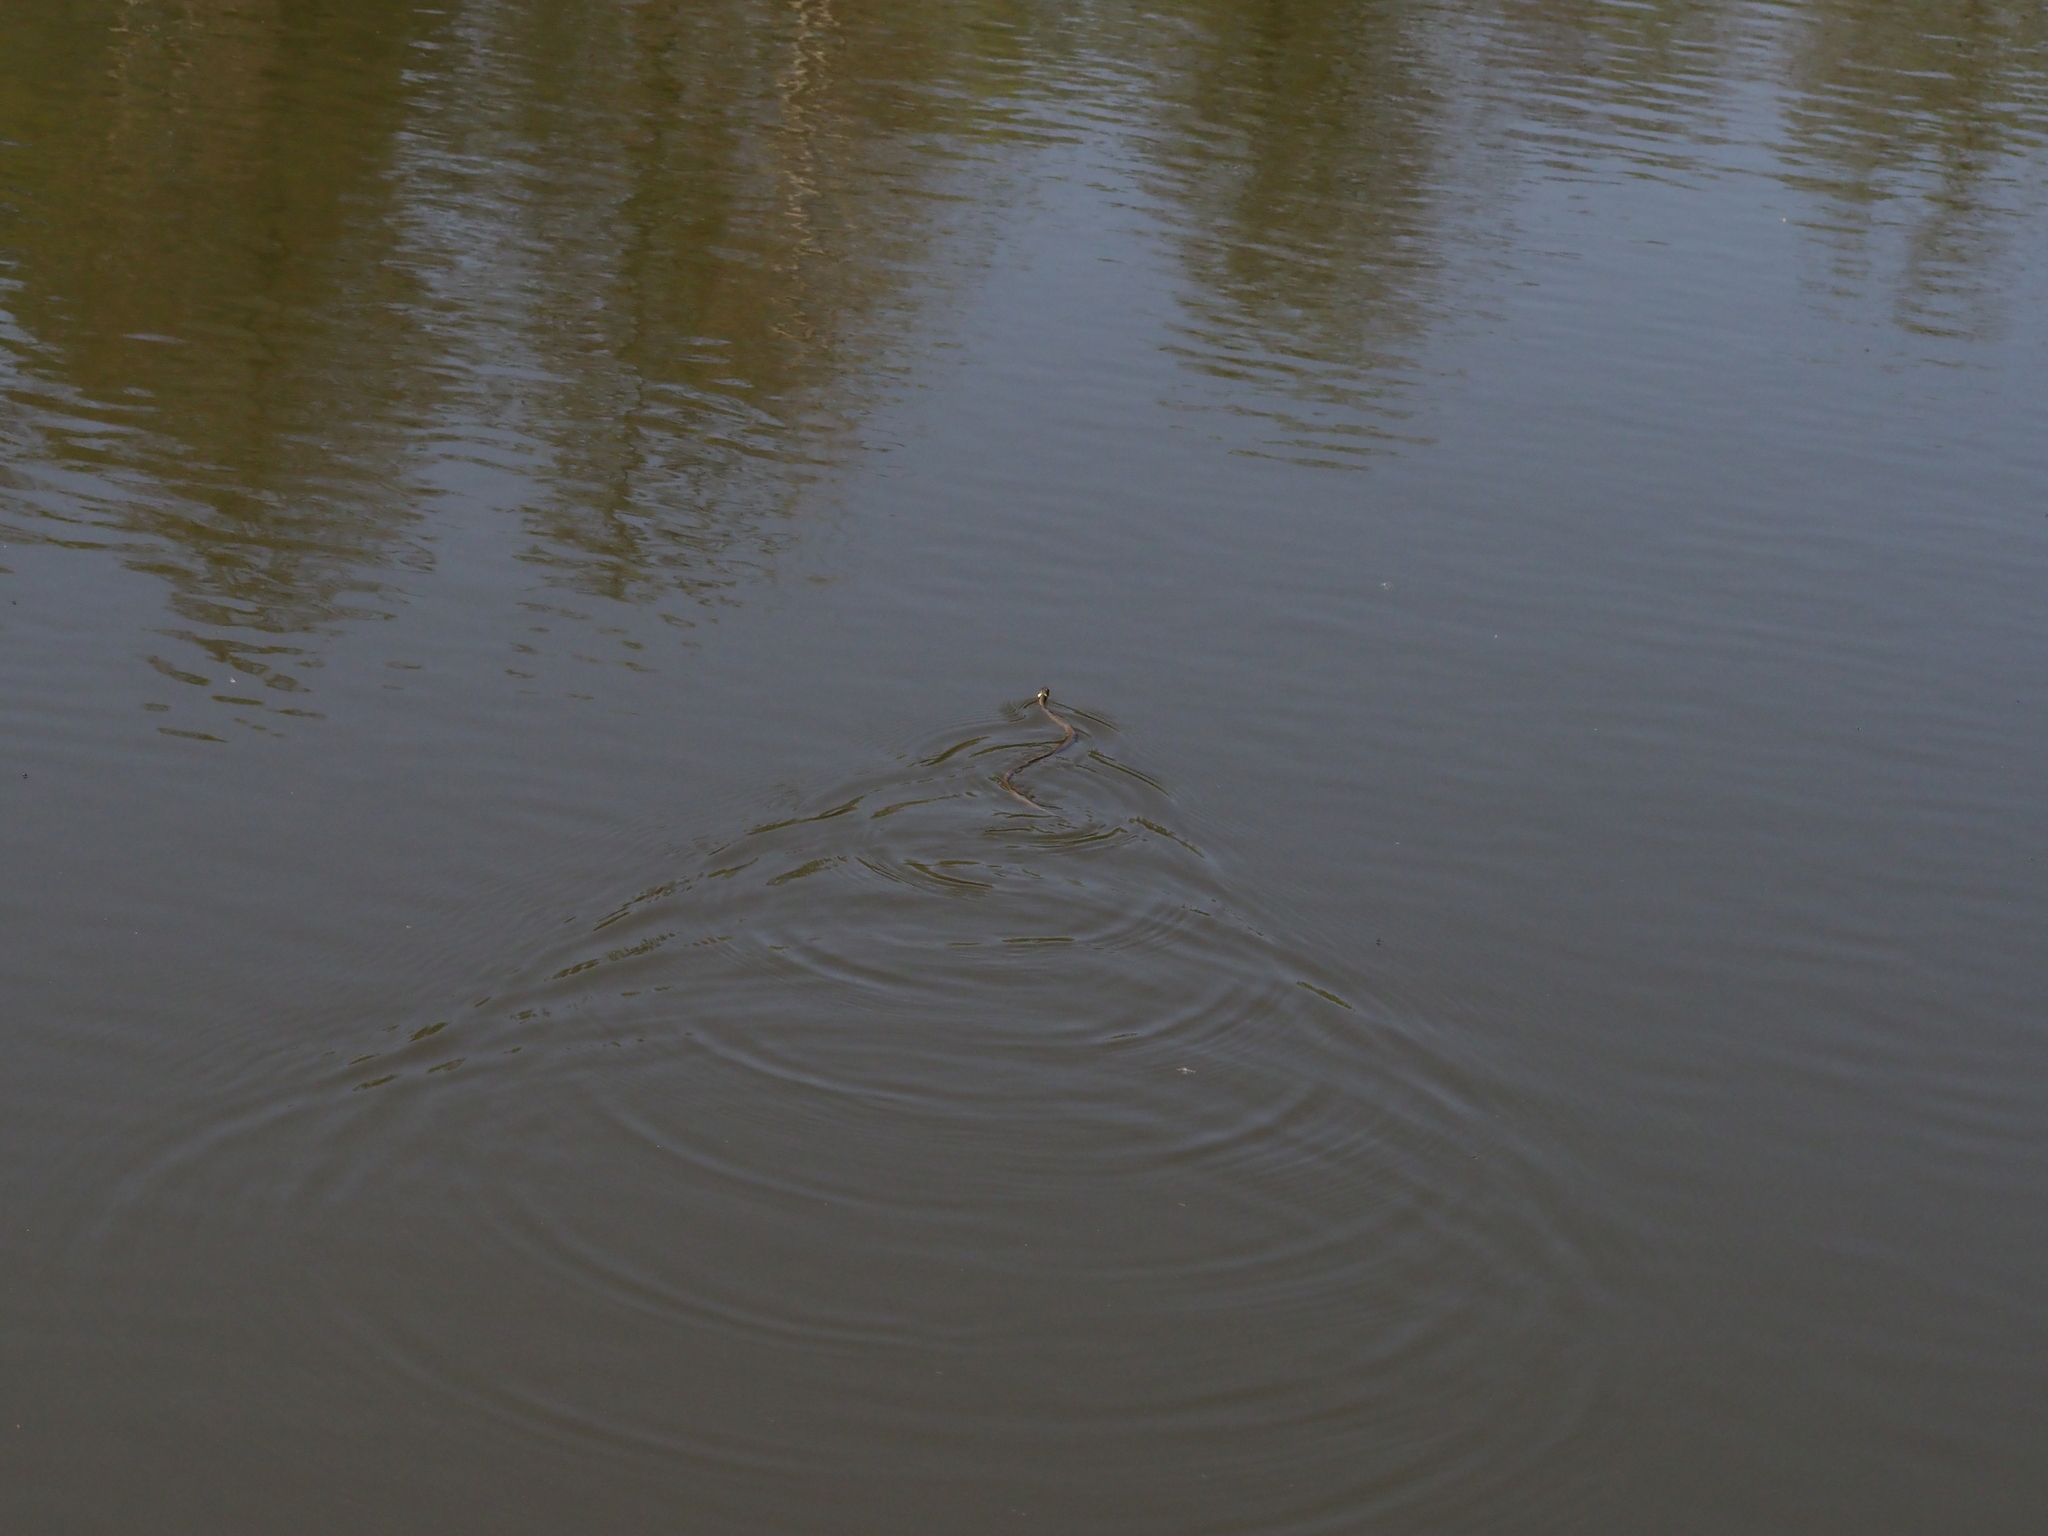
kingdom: Animalia
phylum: Chordata
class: Squamata
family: Colubridae
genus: Natrix
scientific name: Natrix natrix
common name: Grass snake
